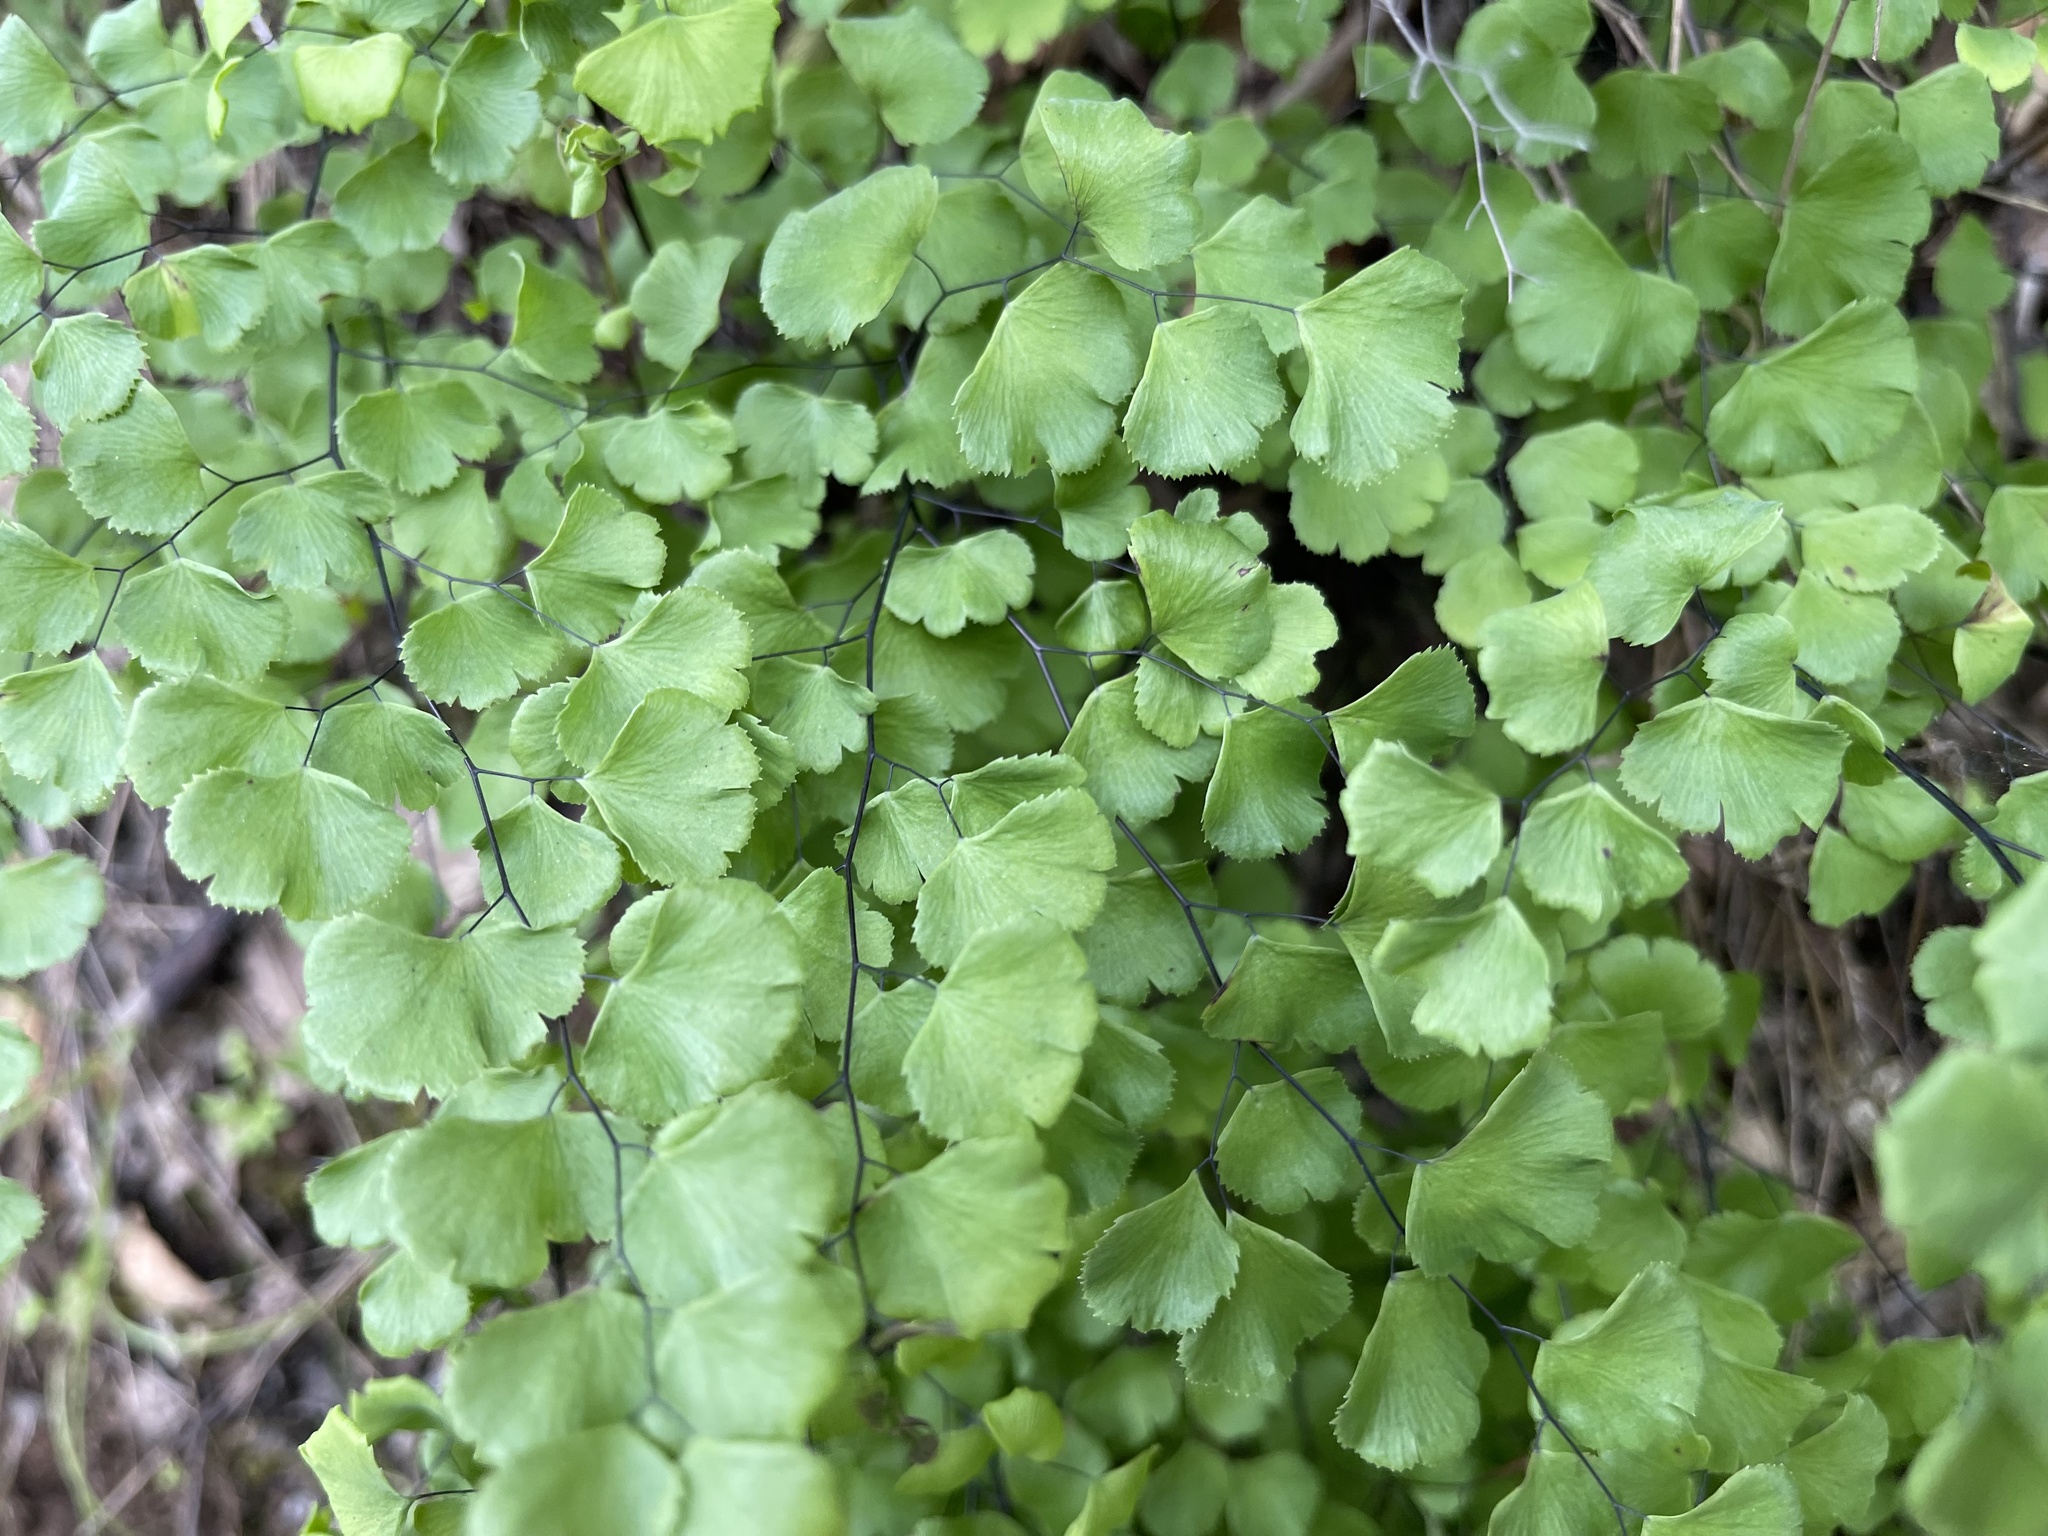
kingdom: Plantae
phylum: Tracheophyta
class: Polypodiopsida
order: Polypodiales
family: Pteridaceae
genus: Adiantum
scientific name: Adiantum jordanii
